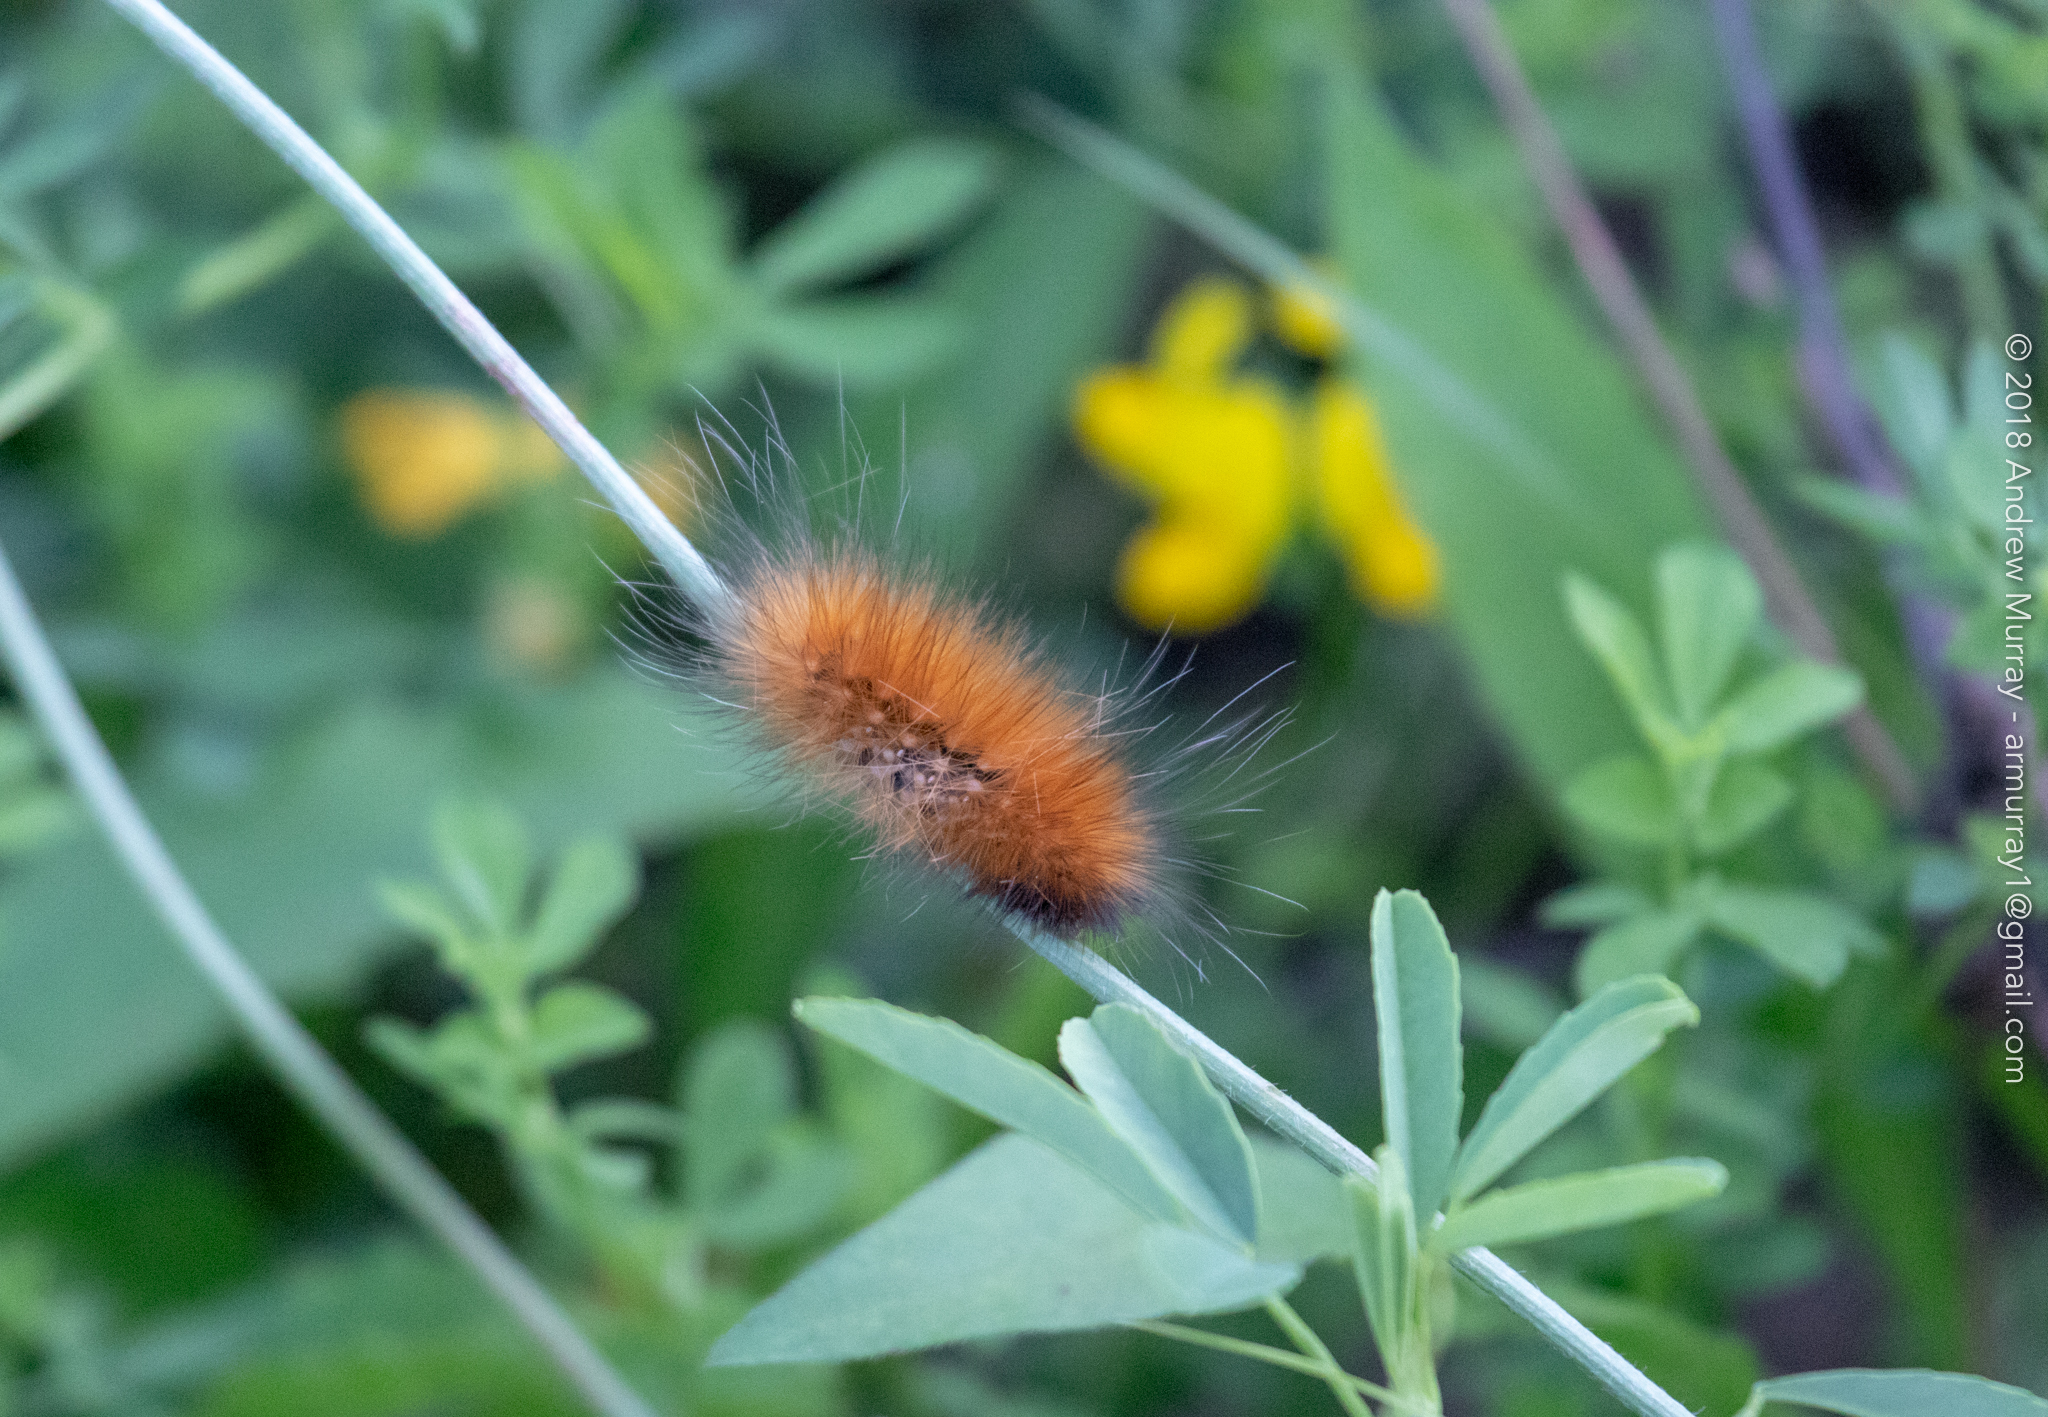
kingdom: Animalia
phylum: Arthropoda
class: Insecta
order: Lepidoptera
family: Erebidae
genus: Spilosoma
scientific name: Spilosoma virginica
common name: Virginia tiger moth
